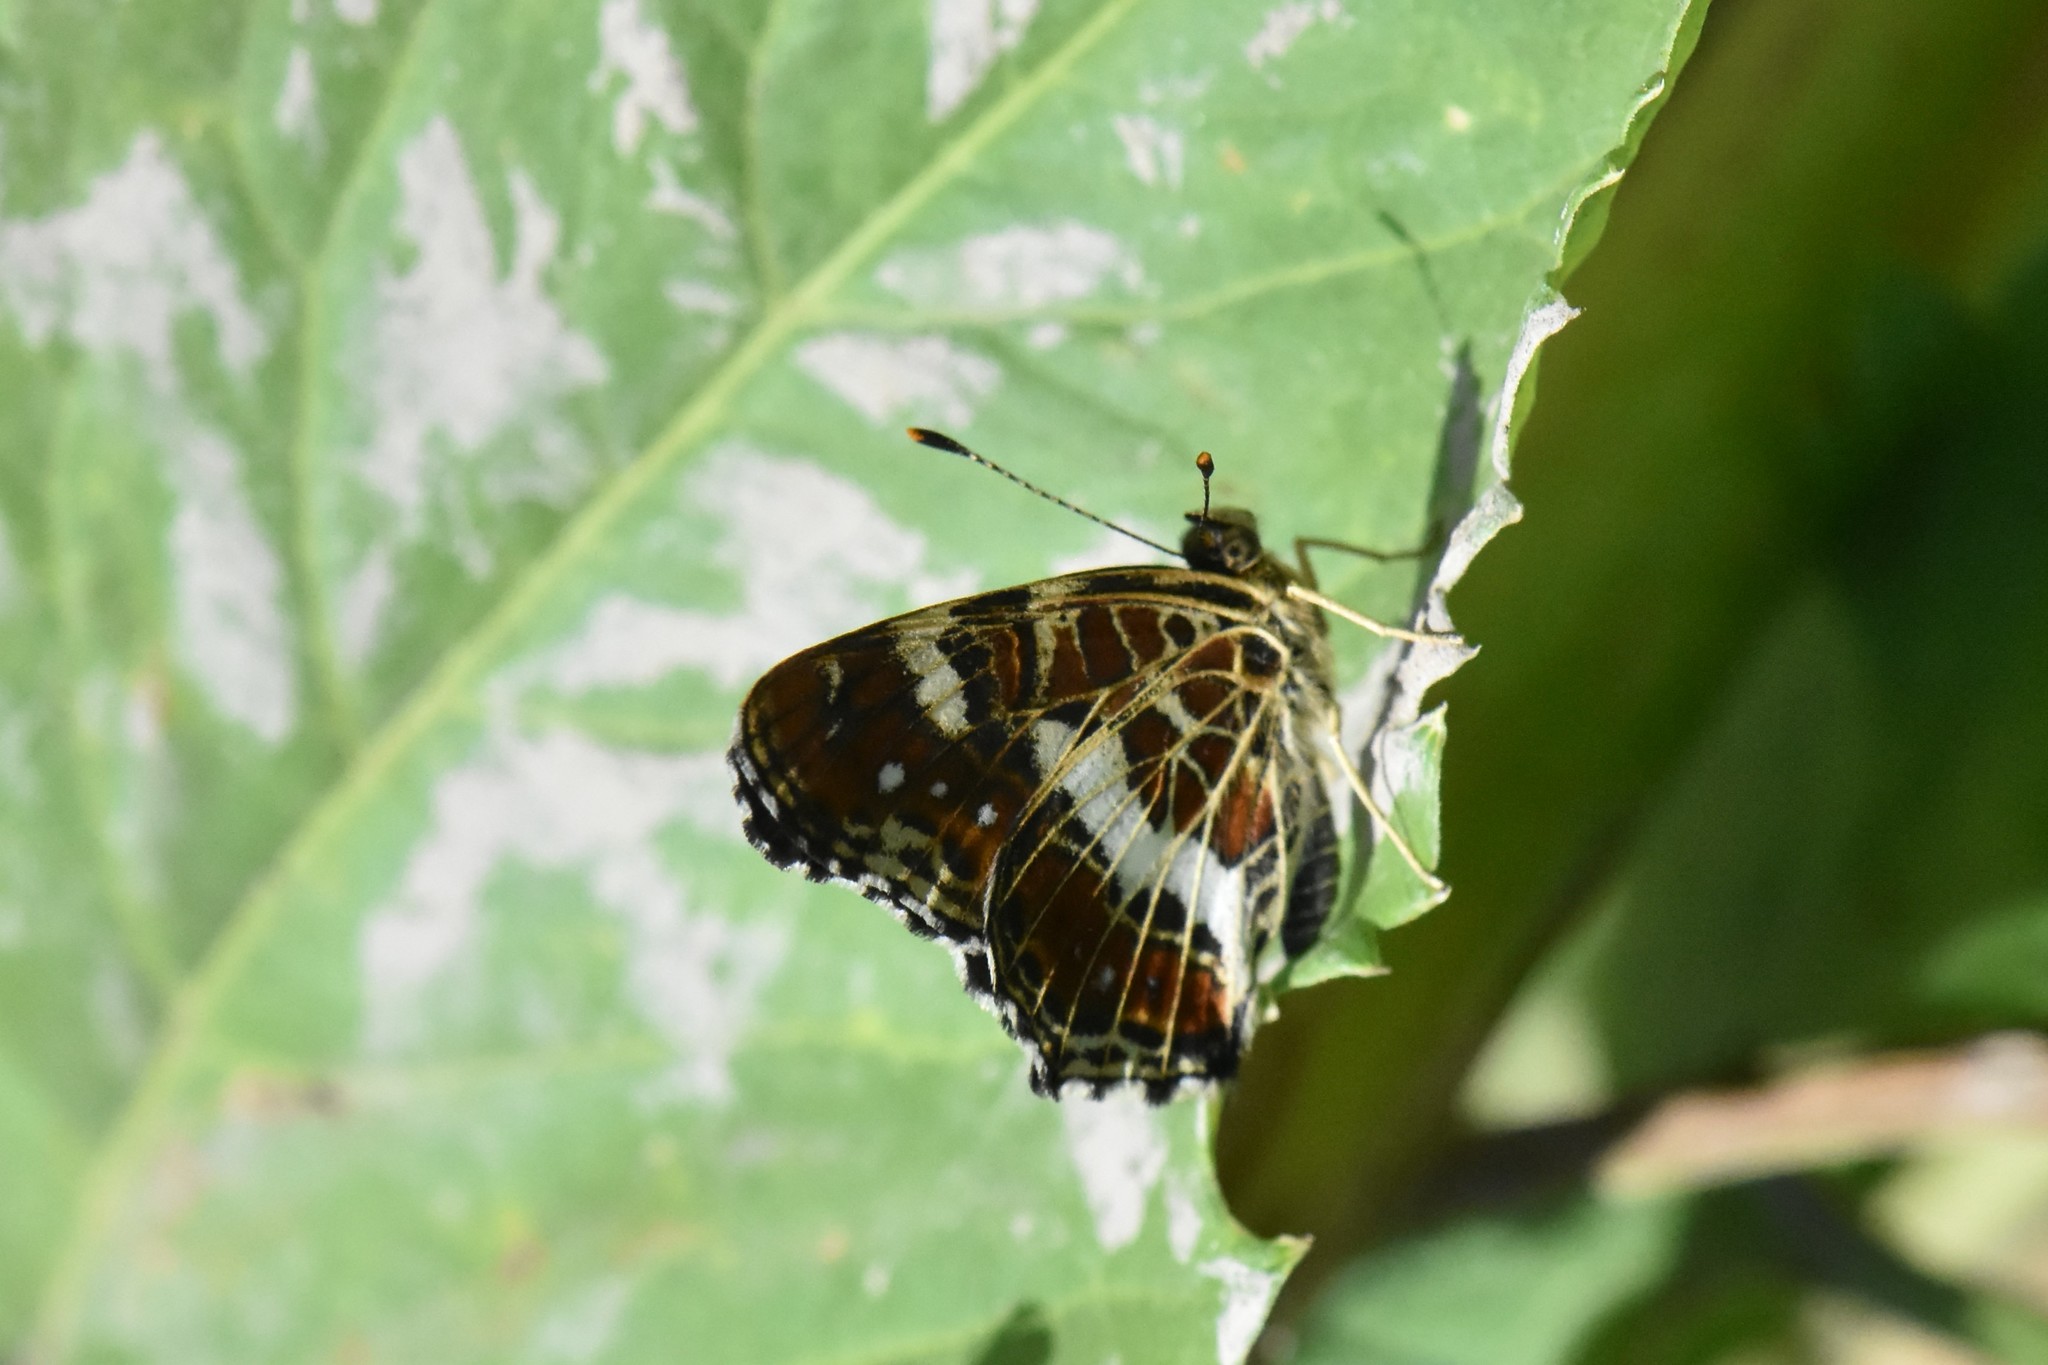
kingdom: Animalia
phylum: Arthropoda
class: Insecta
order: Lepidoptera
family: Nymphalidae
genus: Araschnia
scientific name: Araschnia levana
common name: Map butterfly
